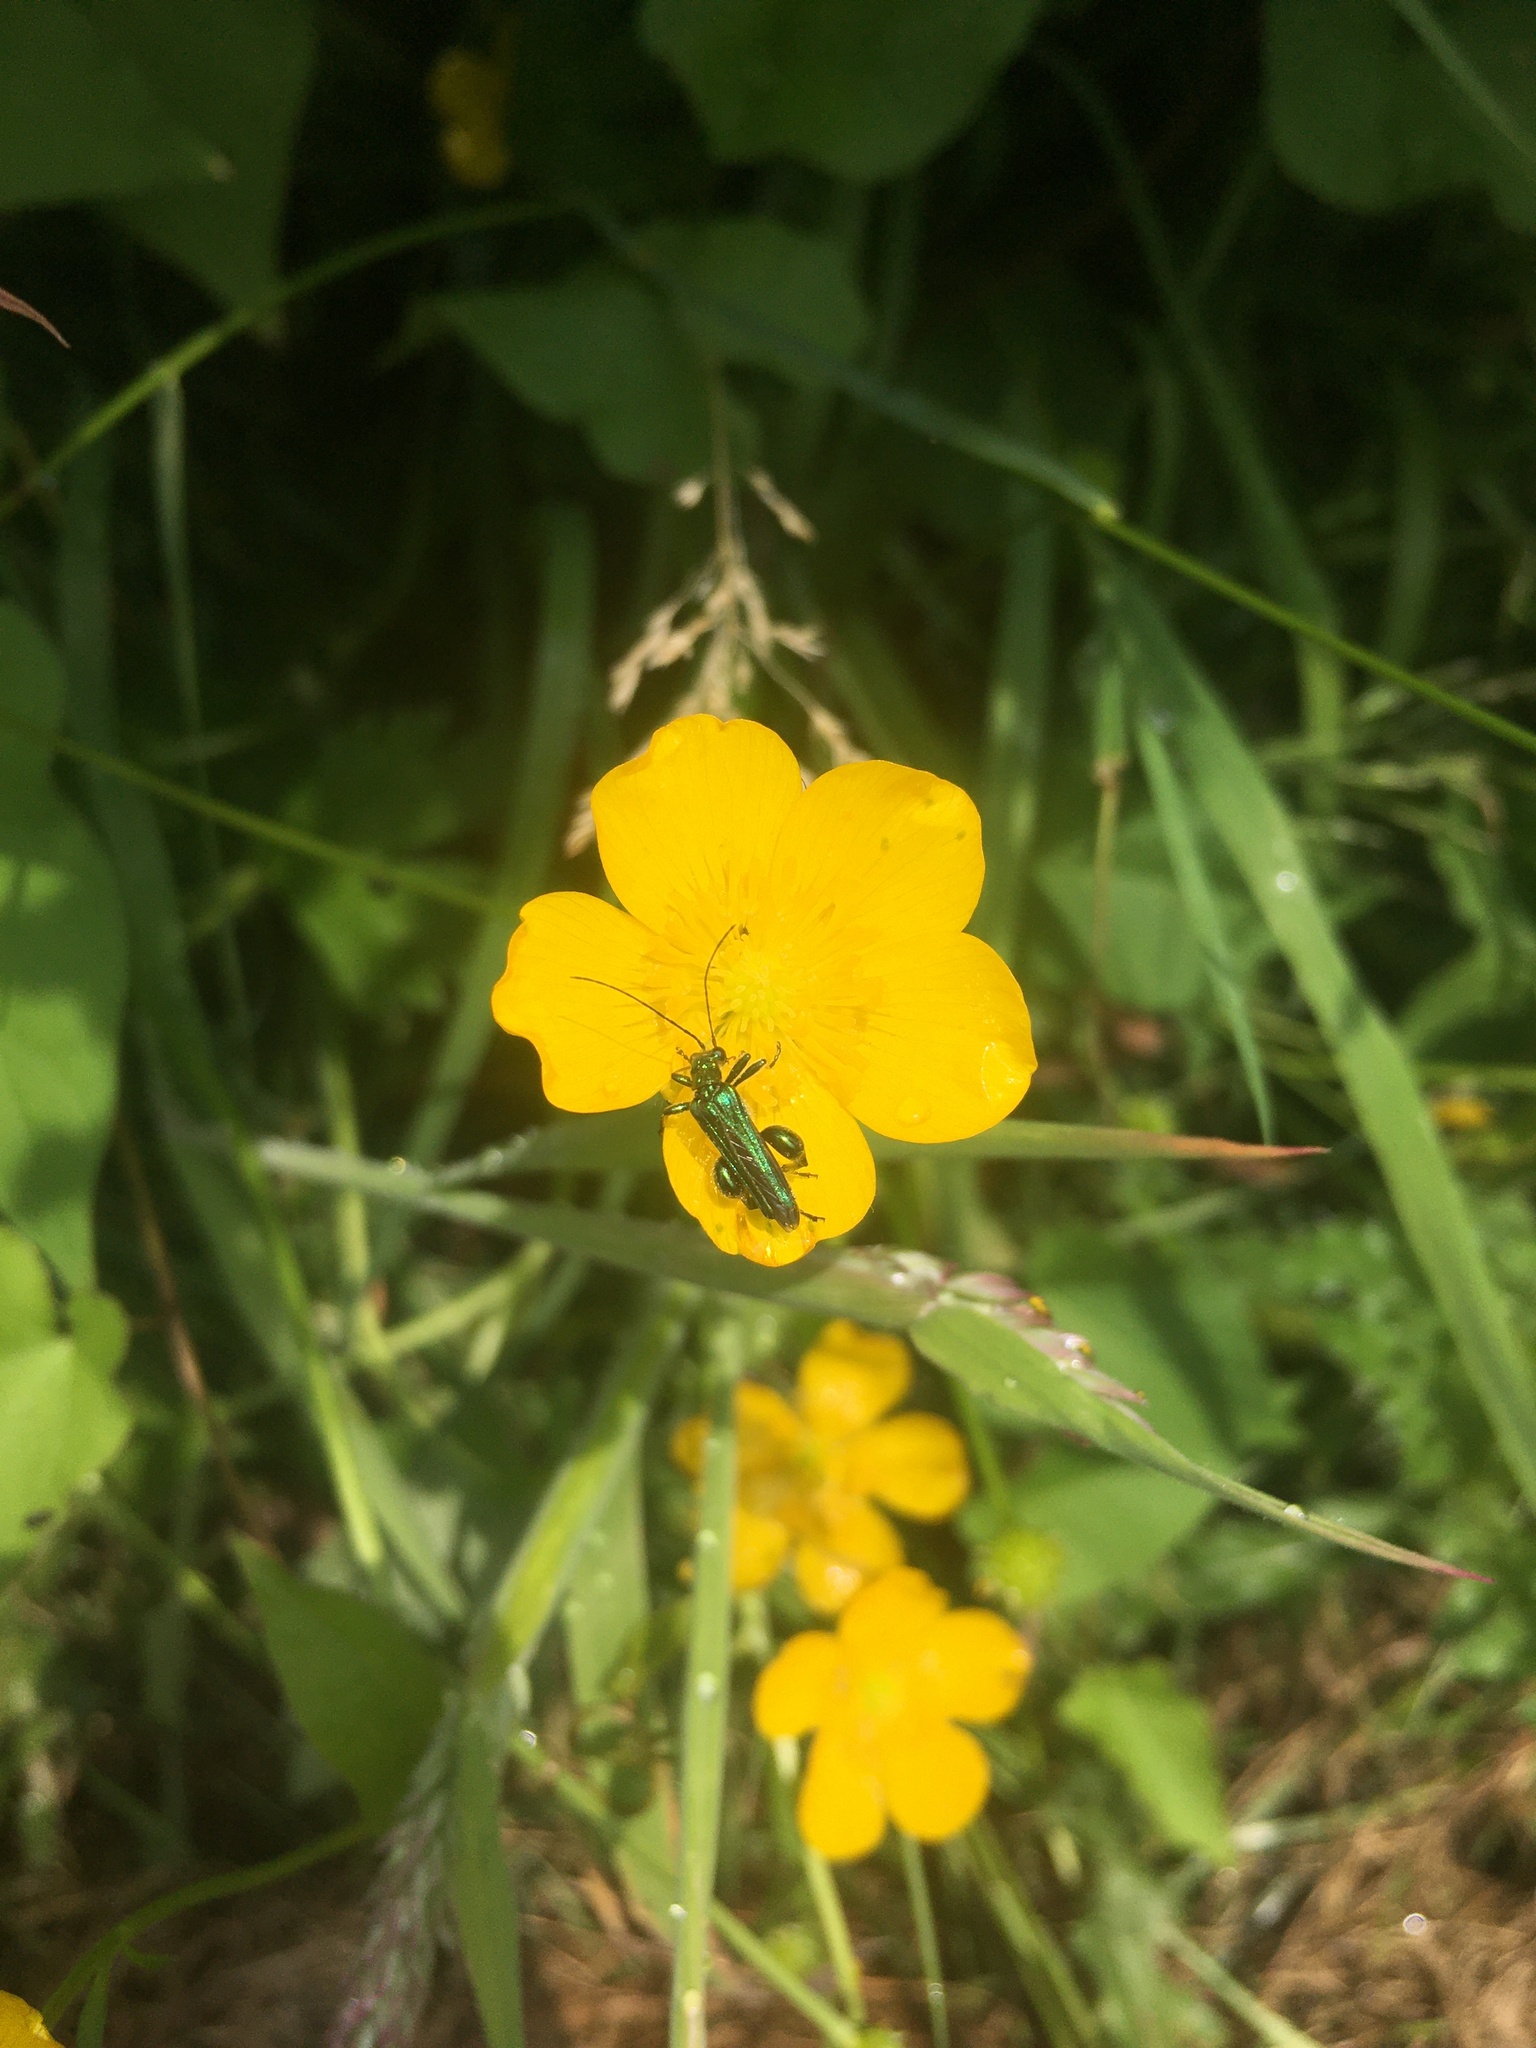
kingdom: Animalia
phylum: Arthropoda
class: Insecta
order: Coleoptera
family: Oedemeridae
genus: Oedemera
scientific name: Oedemera nobilis
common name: Swollen-thighed beetle
